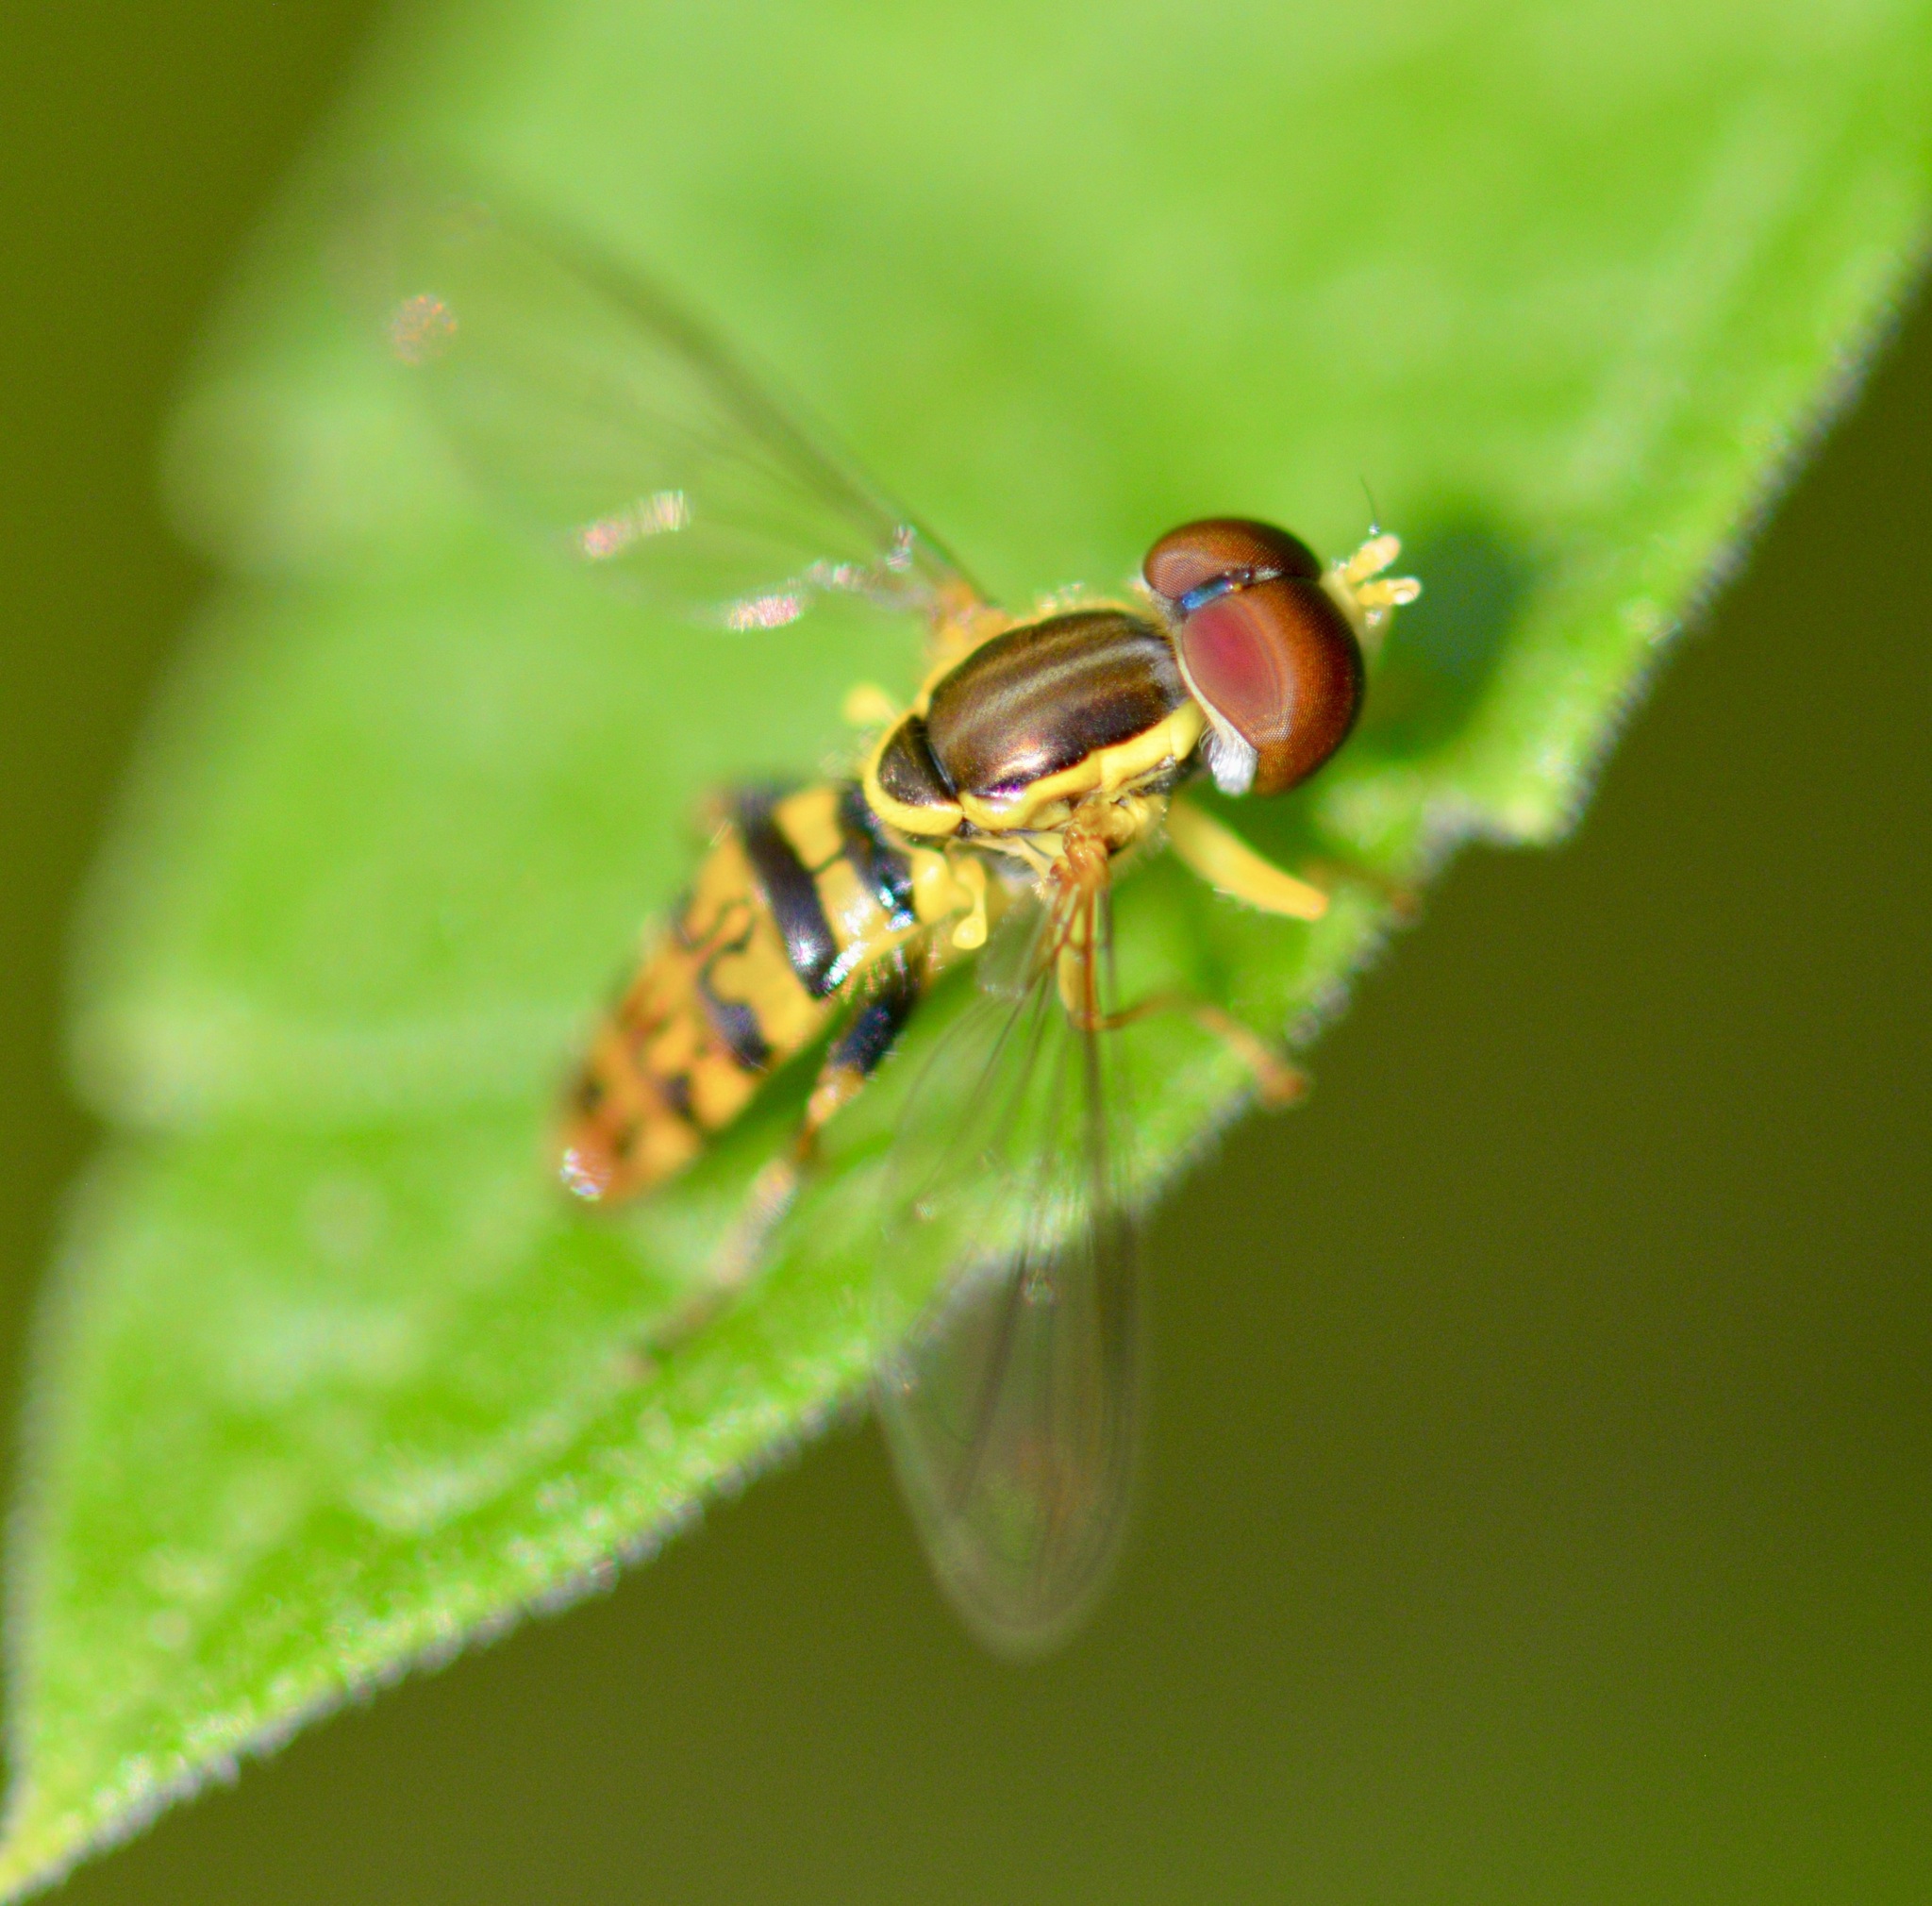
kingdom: Animalia
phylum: Arthropoda
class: Insecta
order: Diptera
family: Syrphidae
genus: Toxomerus
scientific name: Toxomerus geminatus
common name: Eastern calligrapher
